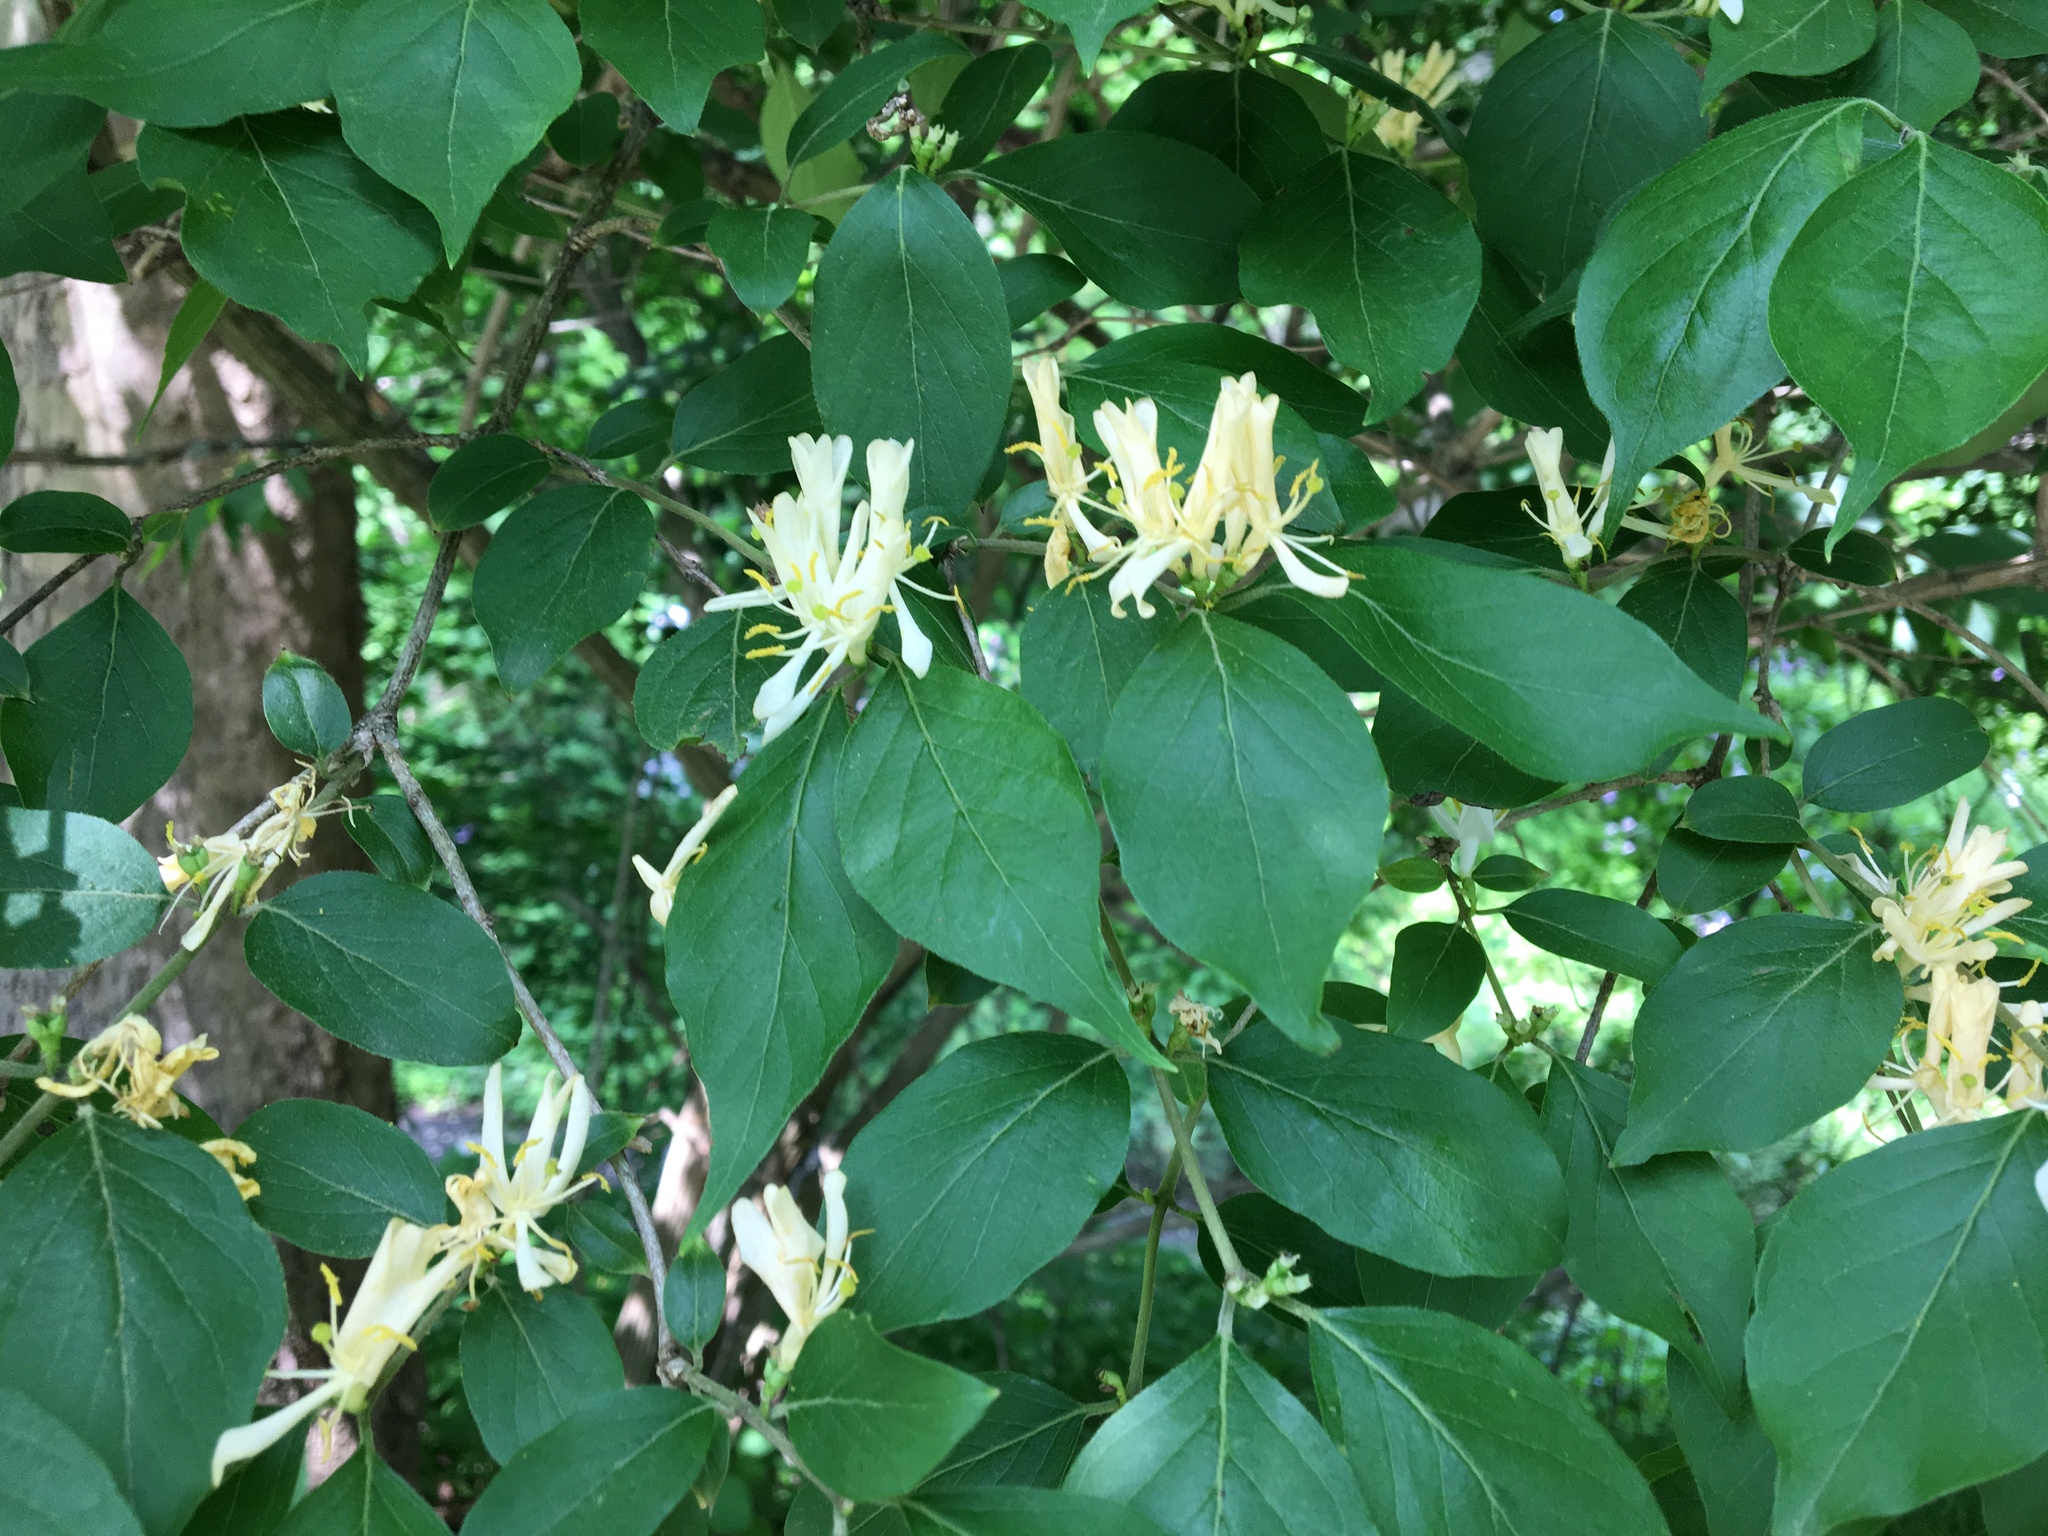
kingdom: Plantae
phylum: Tracheophyta
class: Magnoliopsida
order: Dipsacales
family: Caprifoliaceae
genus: Lonicera
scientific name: Lonicera maackii
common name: Amur honeysuckle
